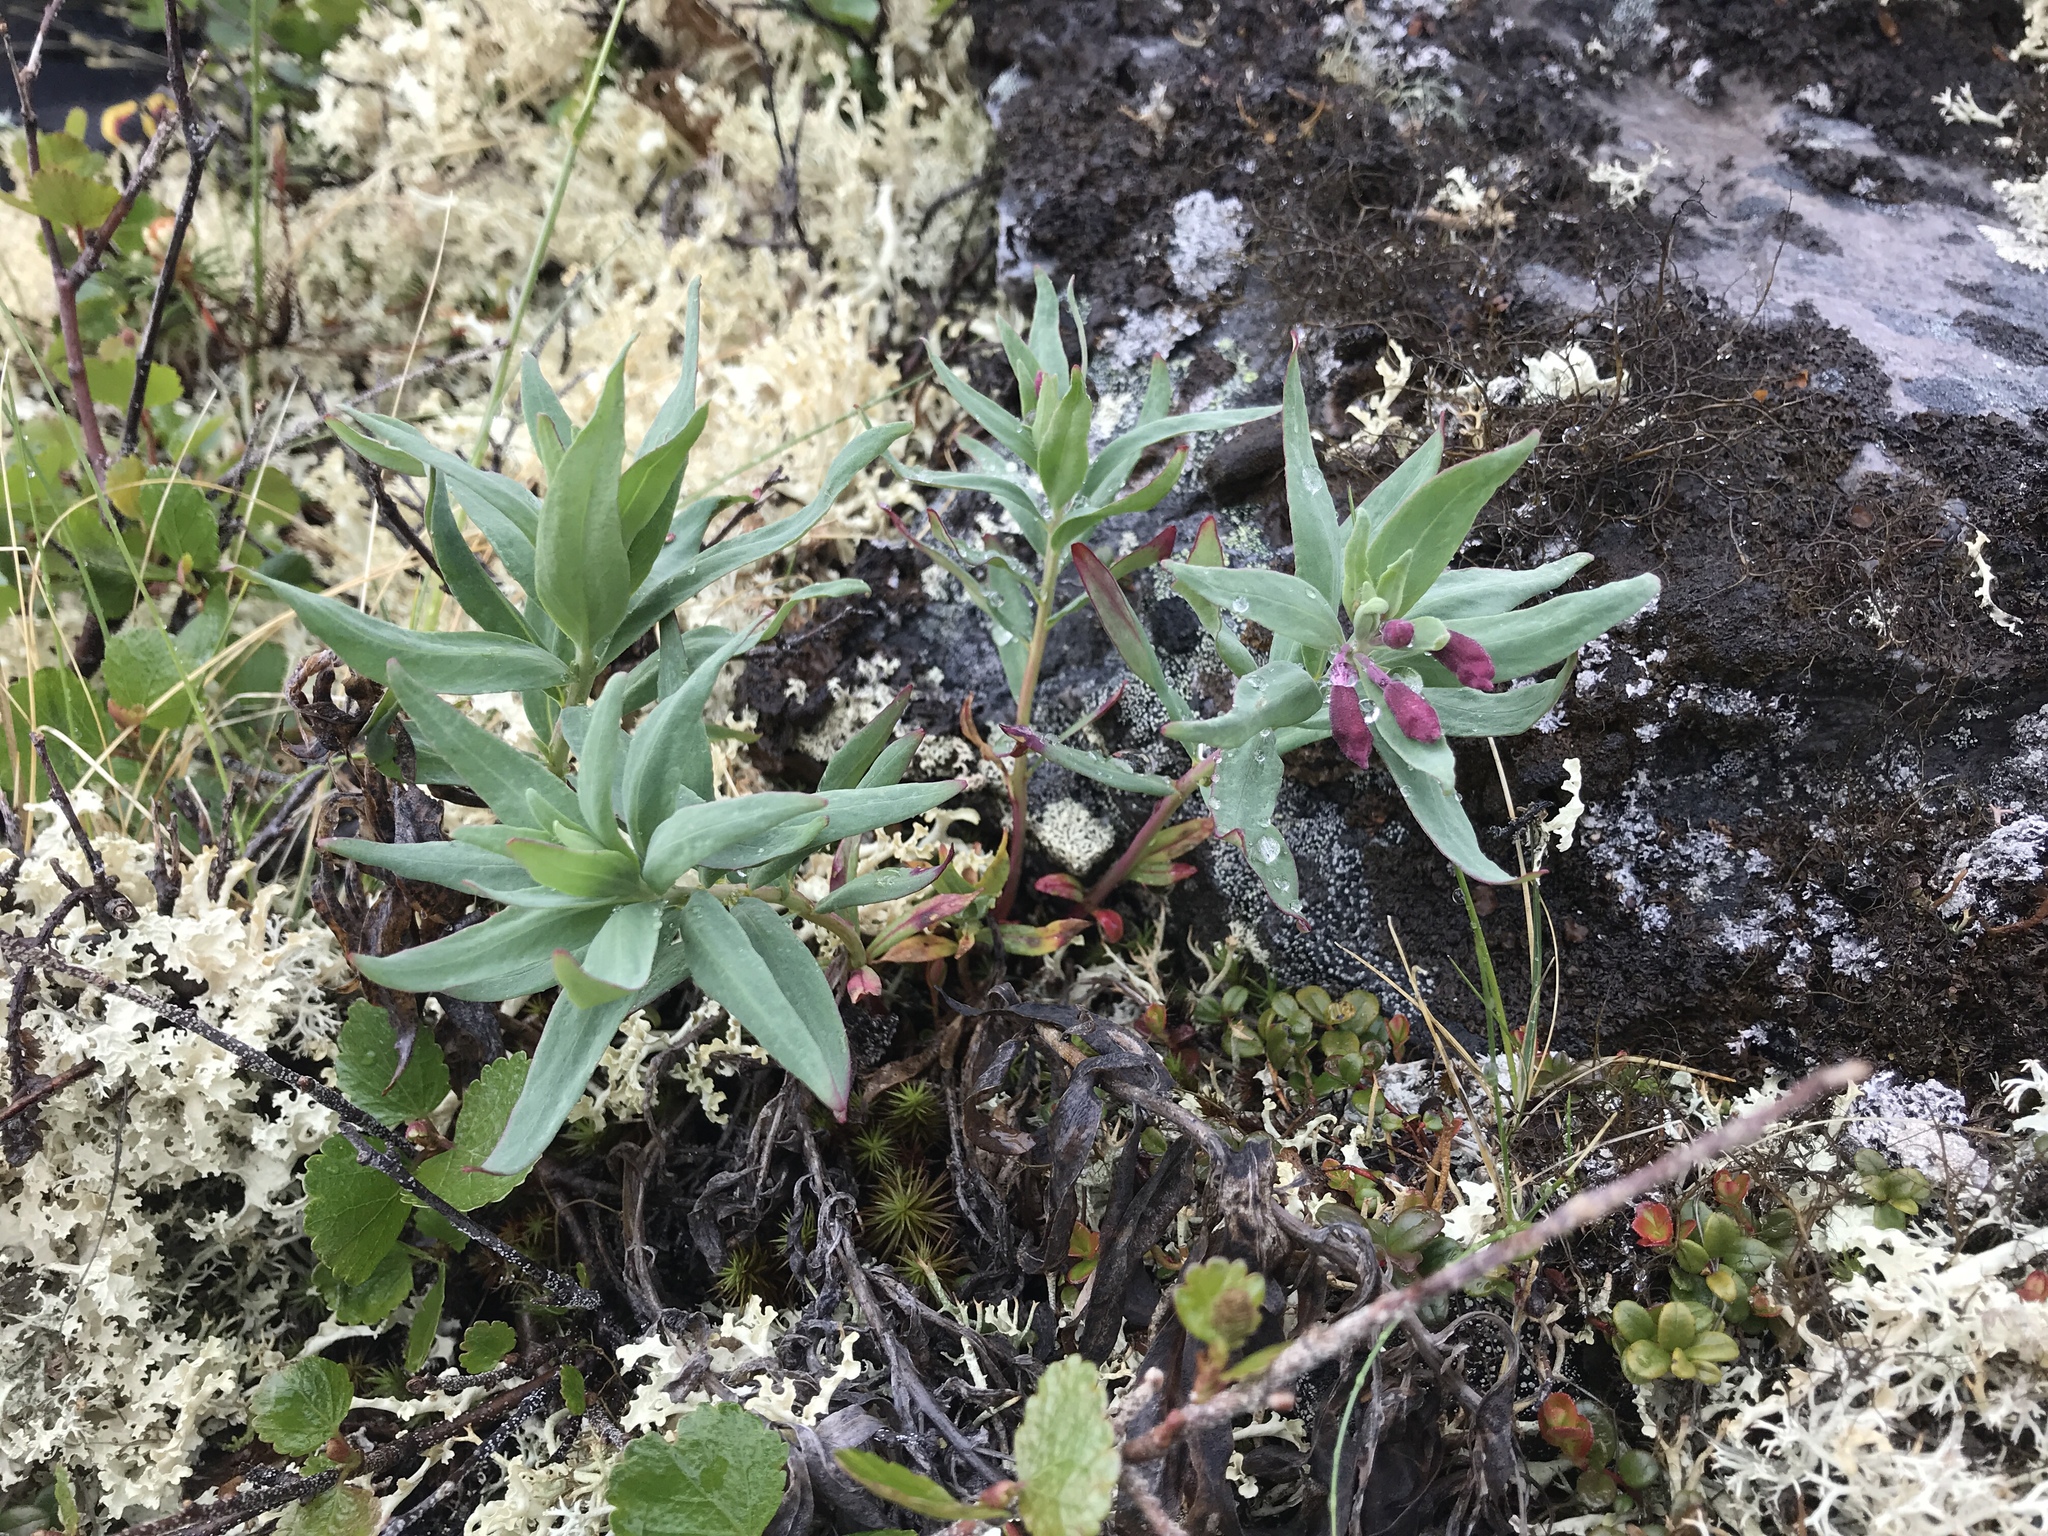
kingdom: Plantae
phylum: Tracheophyta
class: Magnoliopsida
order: Myrtales
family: Onagraceae
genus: Chamaenerion
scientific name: Chamaenerion latifolium
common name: Dwarf fireweed
